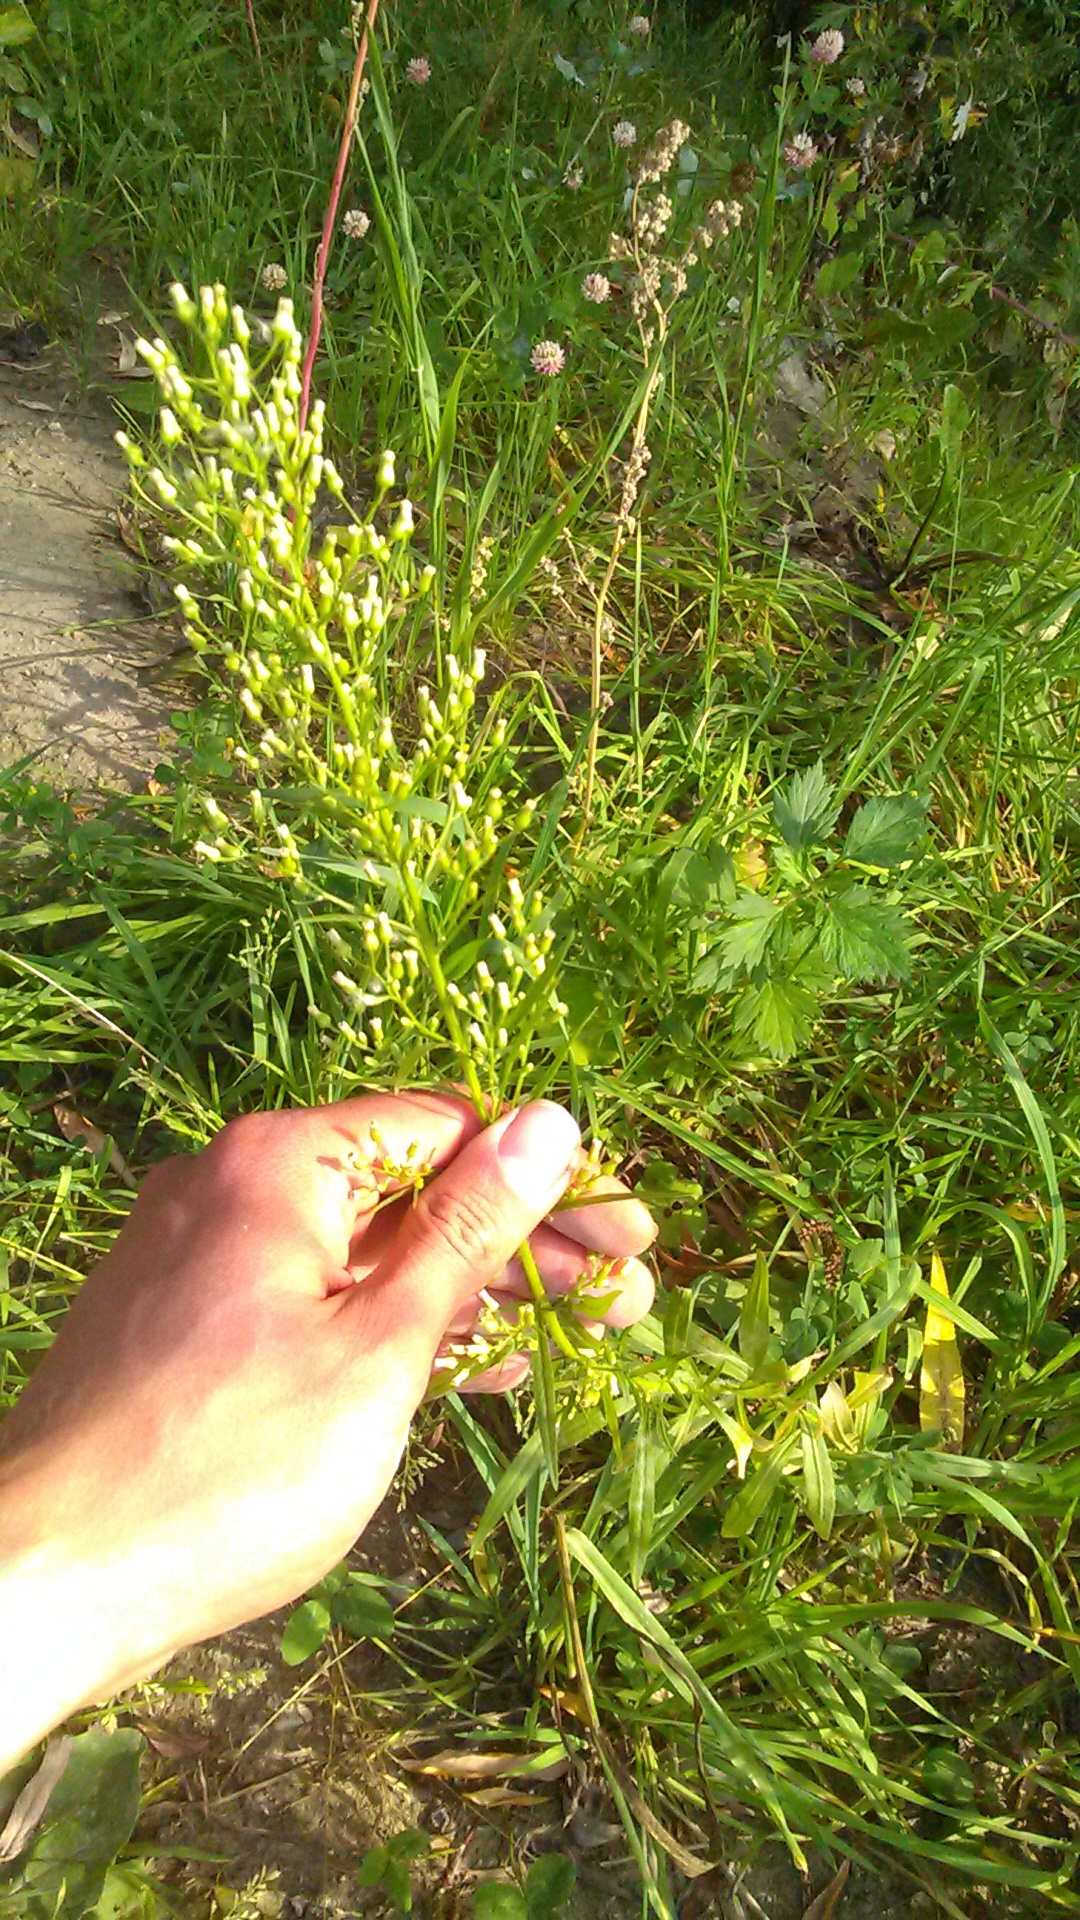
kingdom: Plantae
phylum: Tracheophyta
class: Magnoliopsida
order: Asterales
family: Asteraceae
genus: Erigeron
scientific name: Erigeron canadensis
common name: Canadian fleabane
